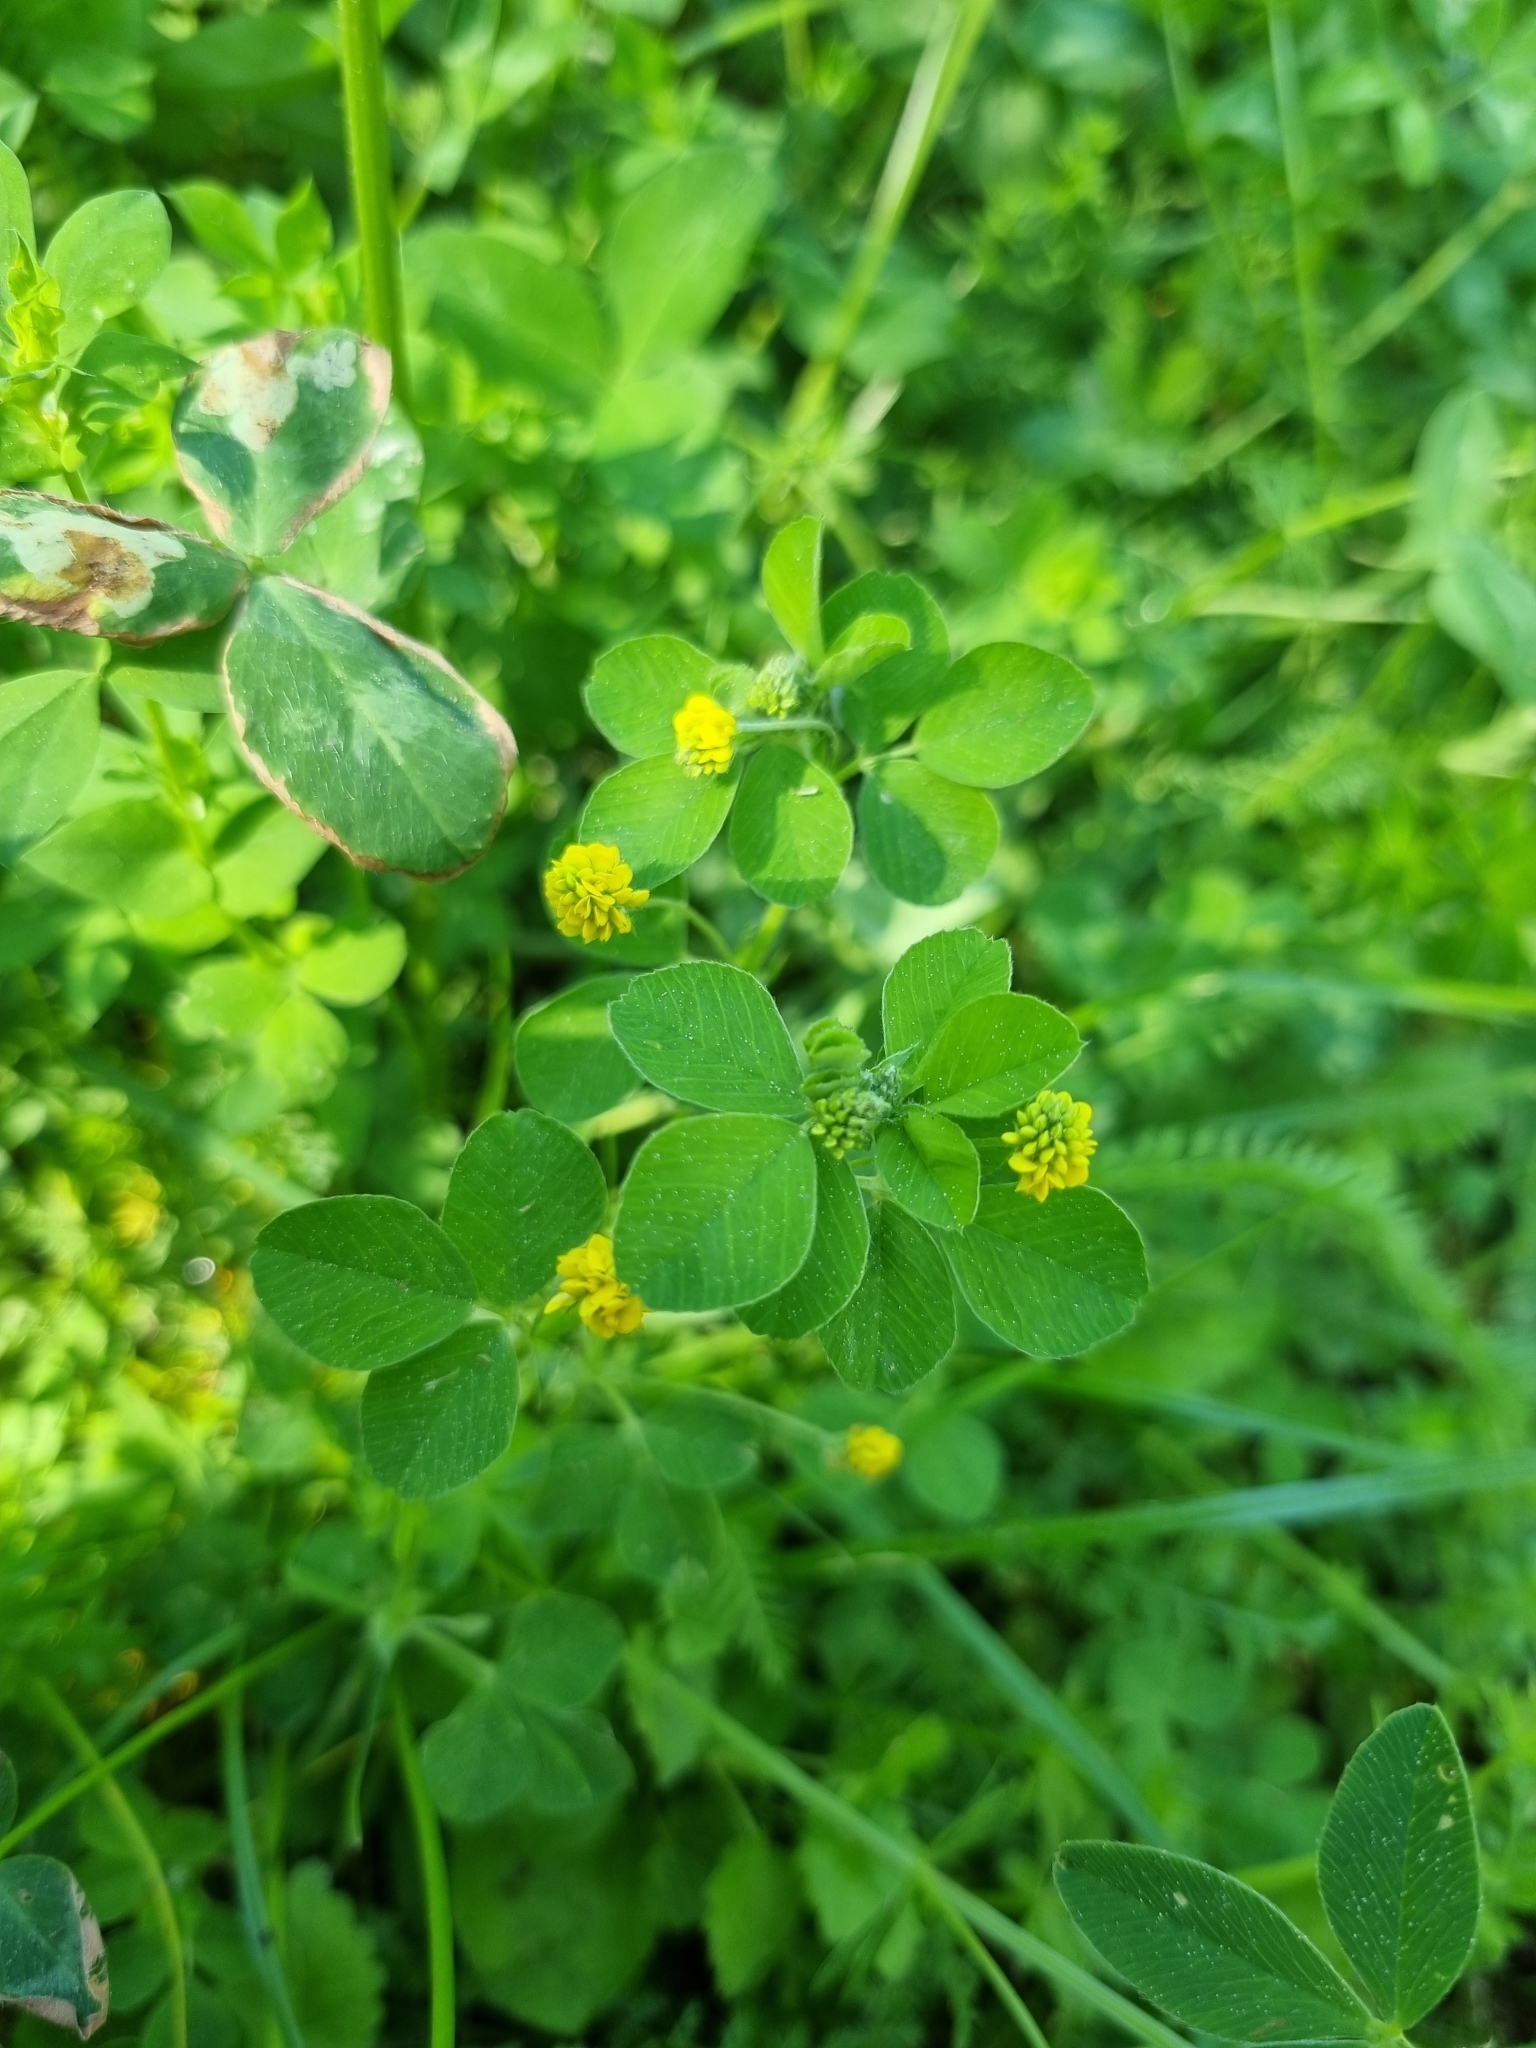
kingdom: Plantae
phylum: Tracheophyta
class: Magnoliopsida
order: Fabales
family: Fabaceae
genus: Medicago
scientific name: Medicago lupulina
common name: Black medick
